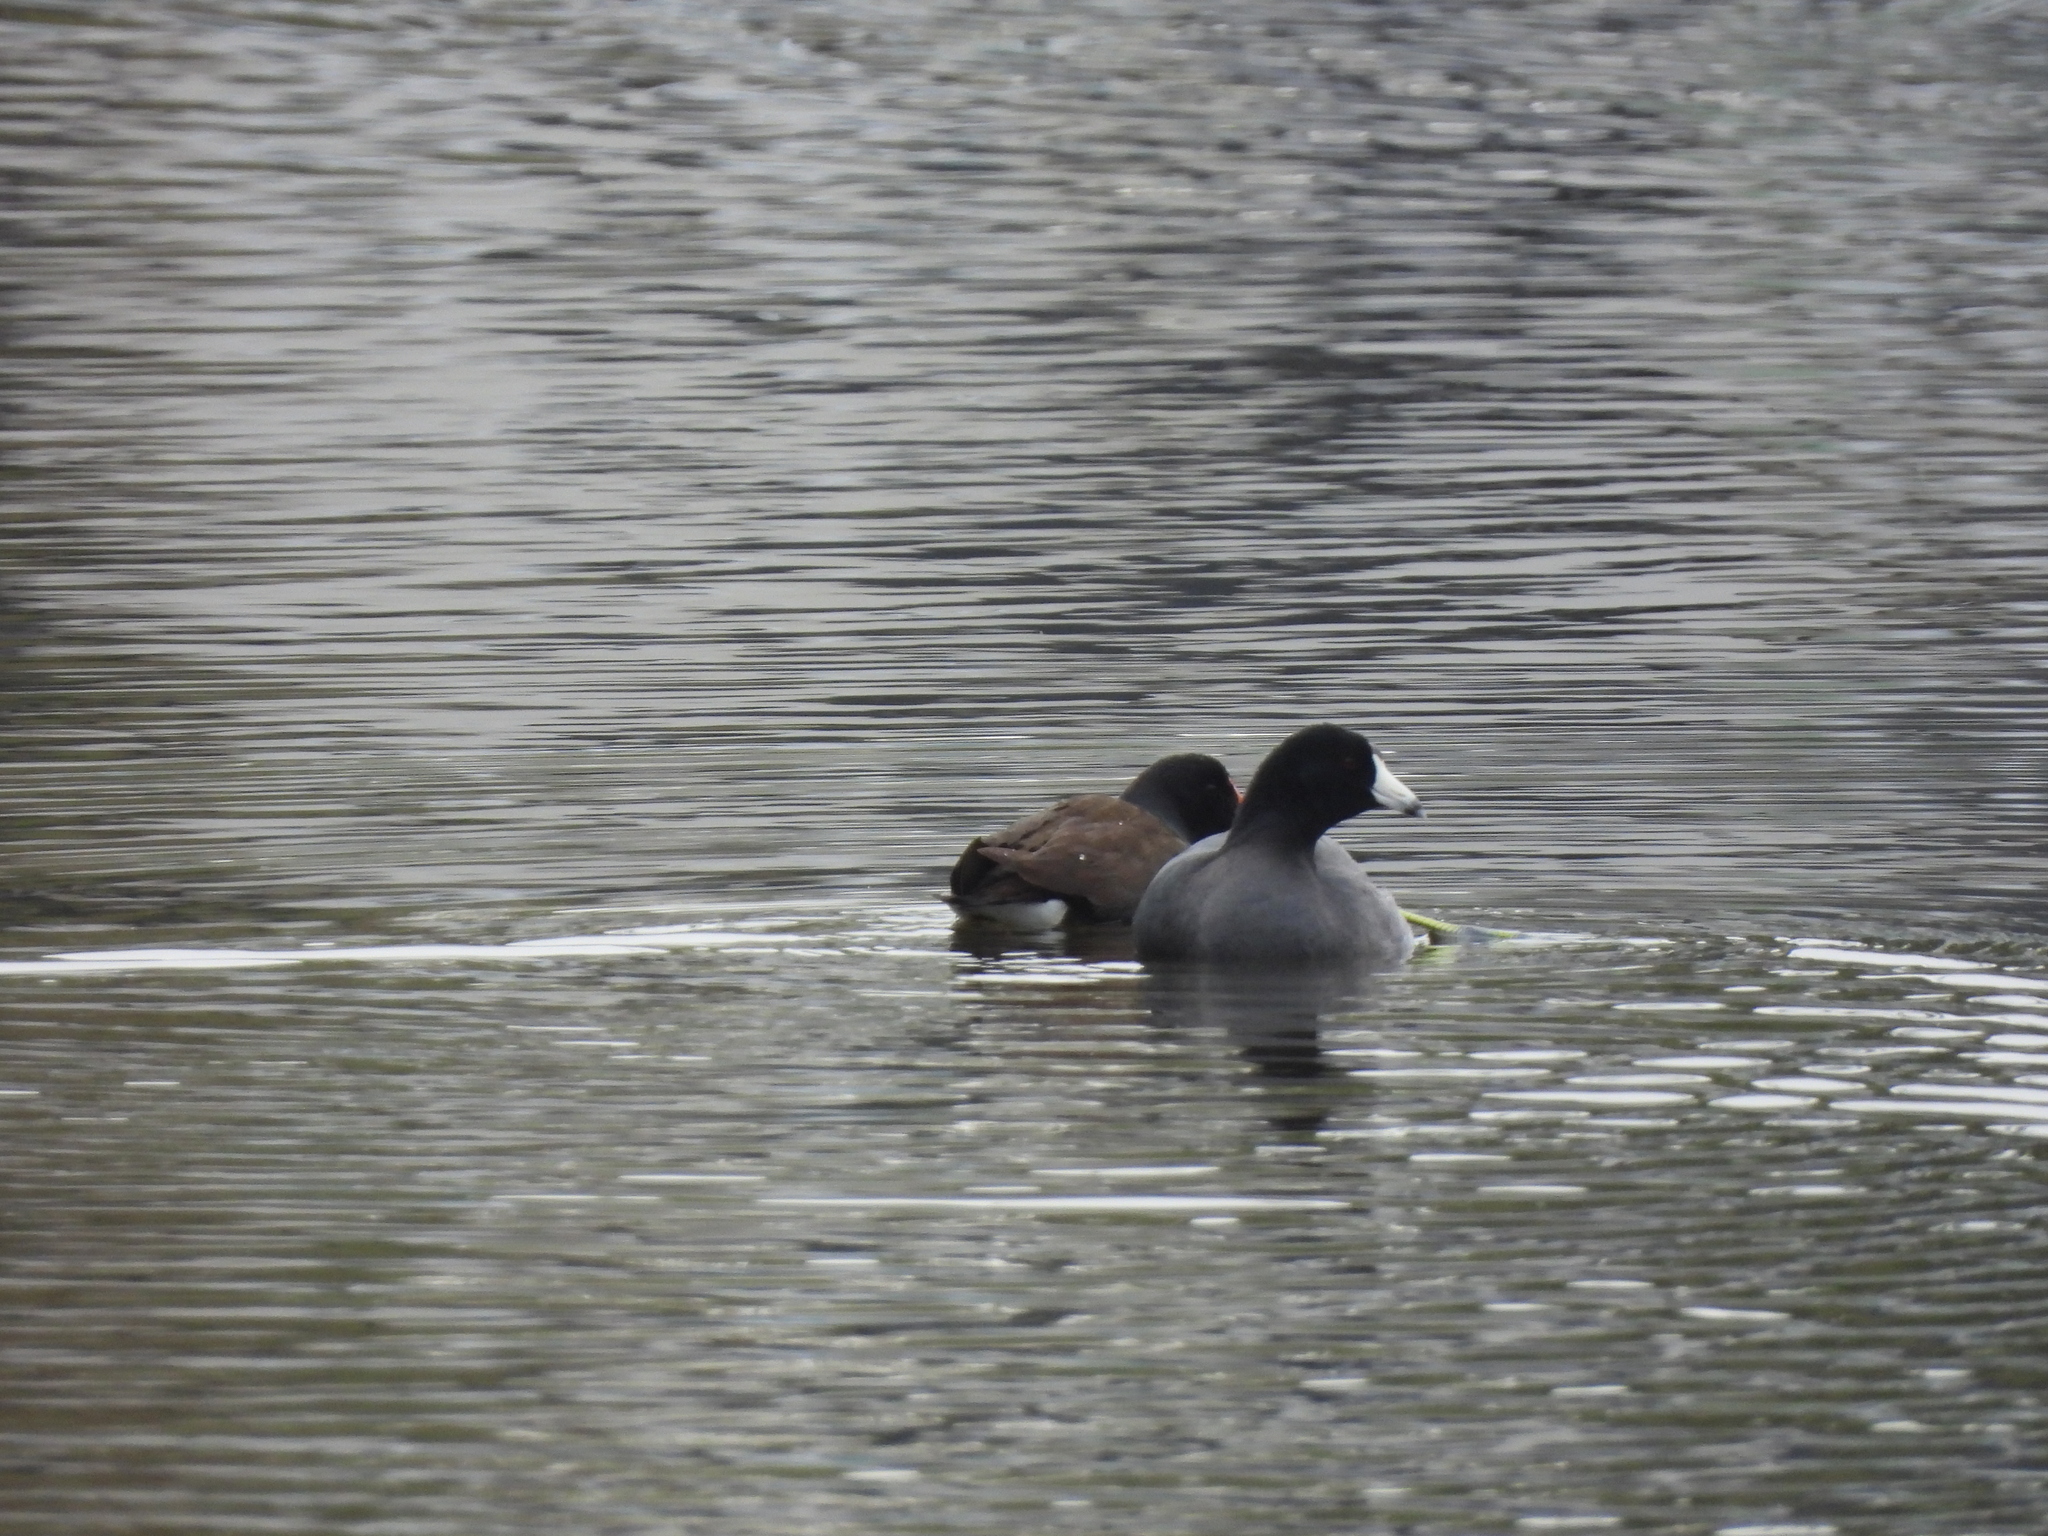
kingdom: Animalia
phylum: Chordata
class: Aves
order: Gruiformes
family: Rallidae
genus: Fulica
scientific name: Fulica americana
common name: American coot
